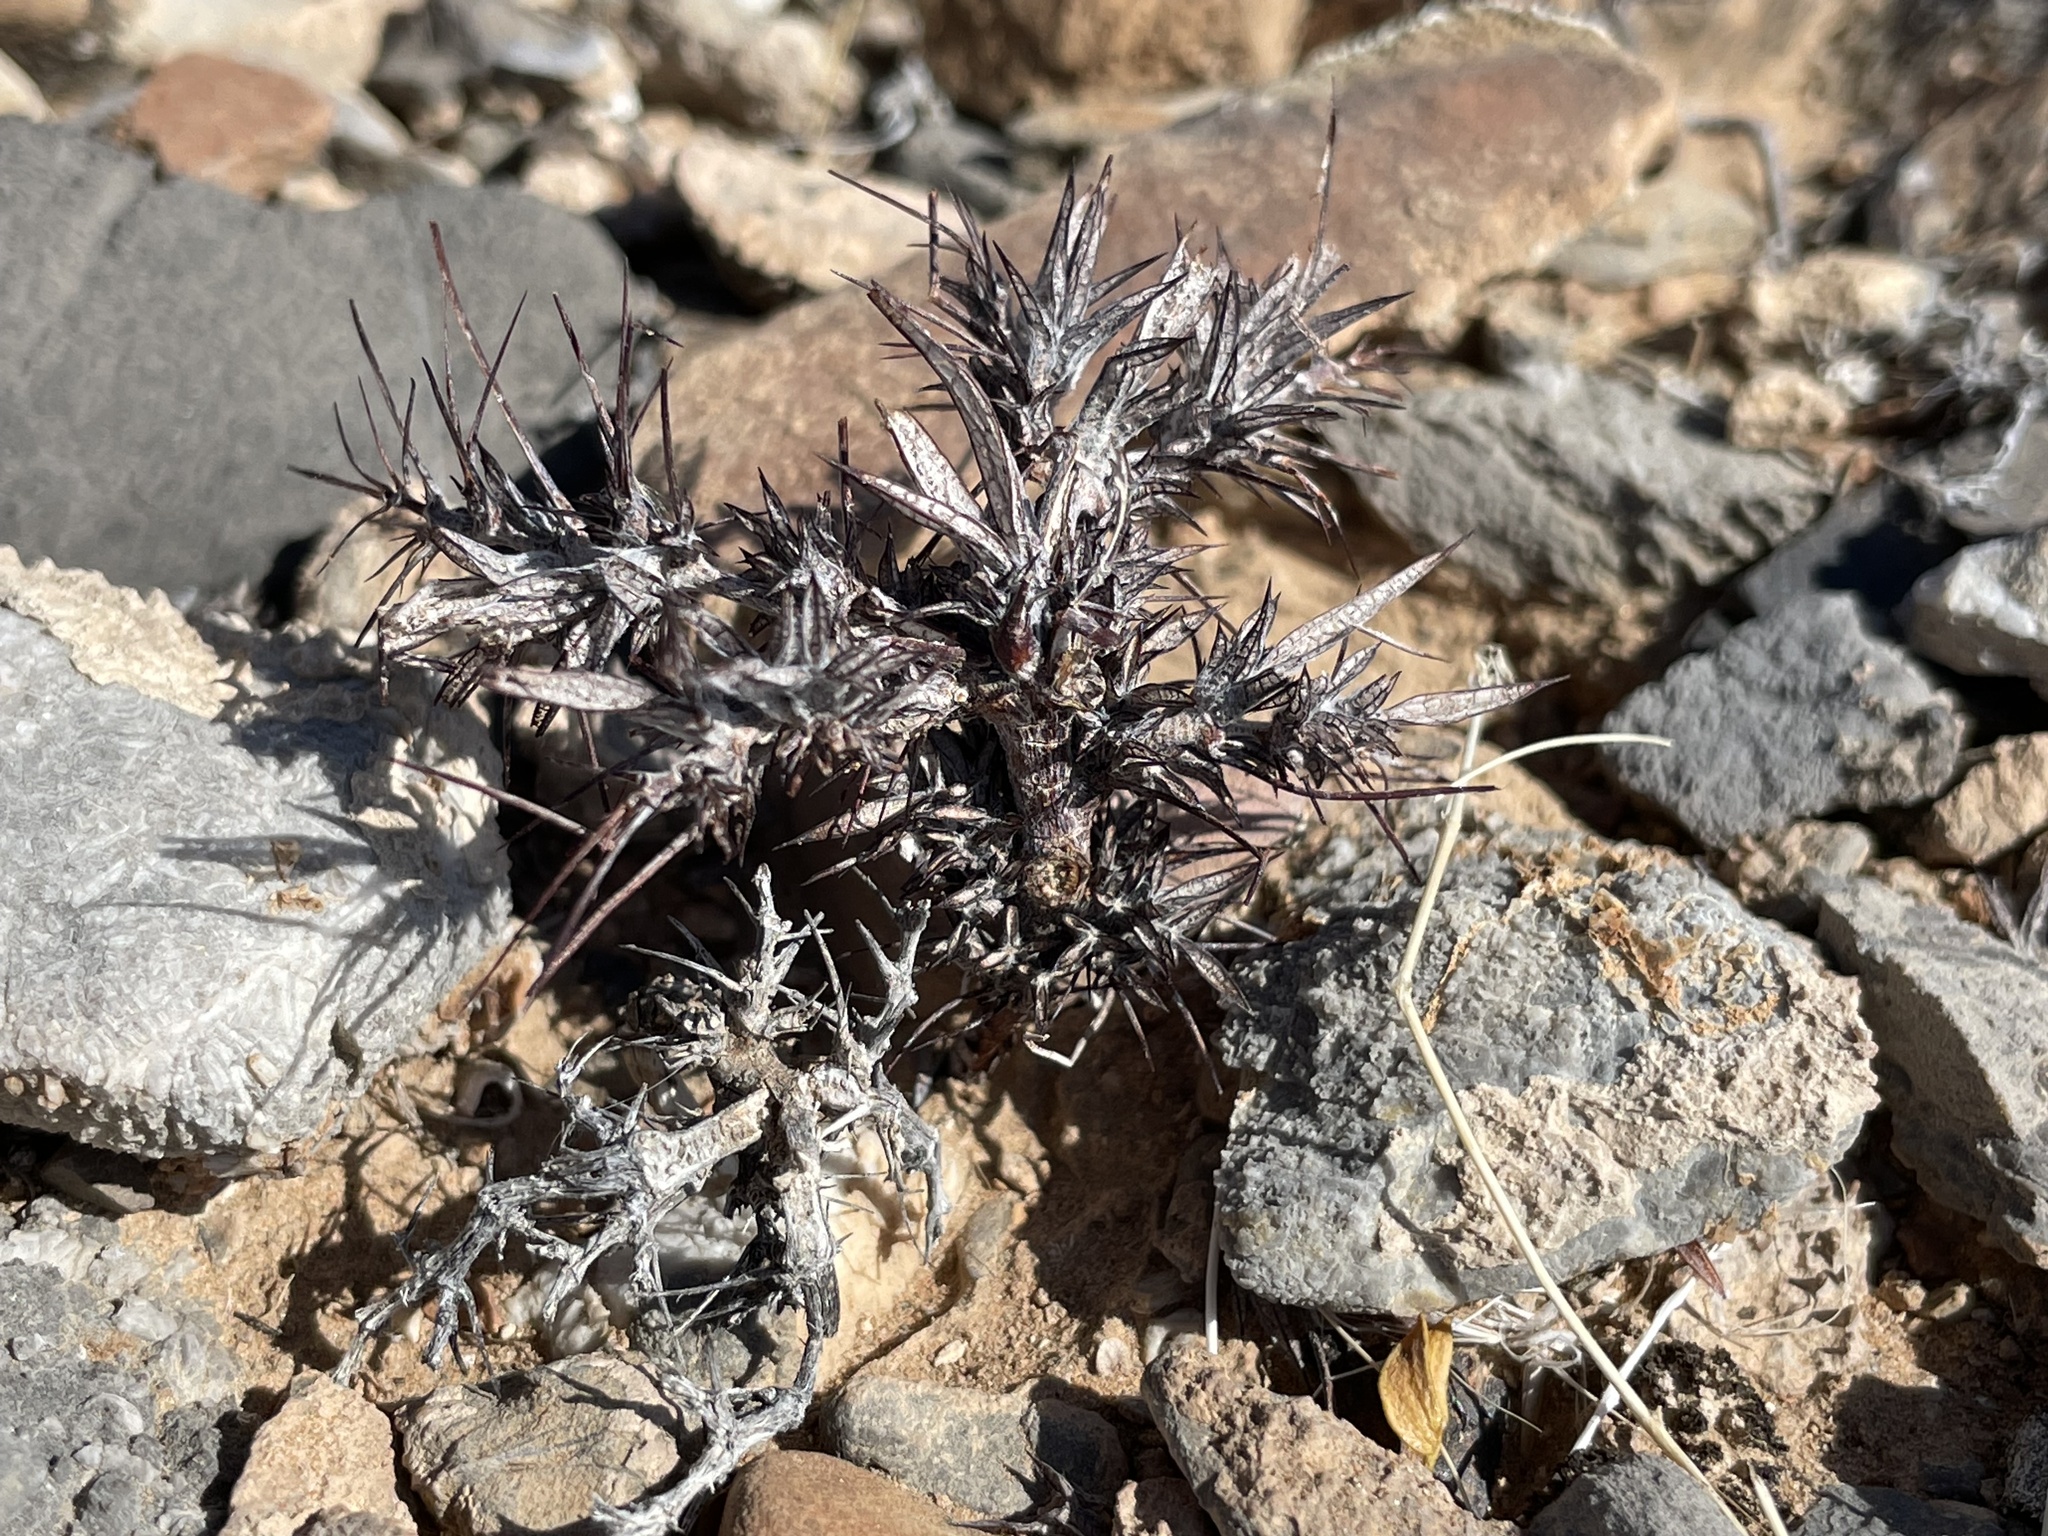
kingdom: Plantae
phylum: Tracheophyta
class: Magnoliopsida
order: Caryophyllales
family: Polygonaceae
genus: Chorizanthe
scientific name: Chorizanthe rigida
